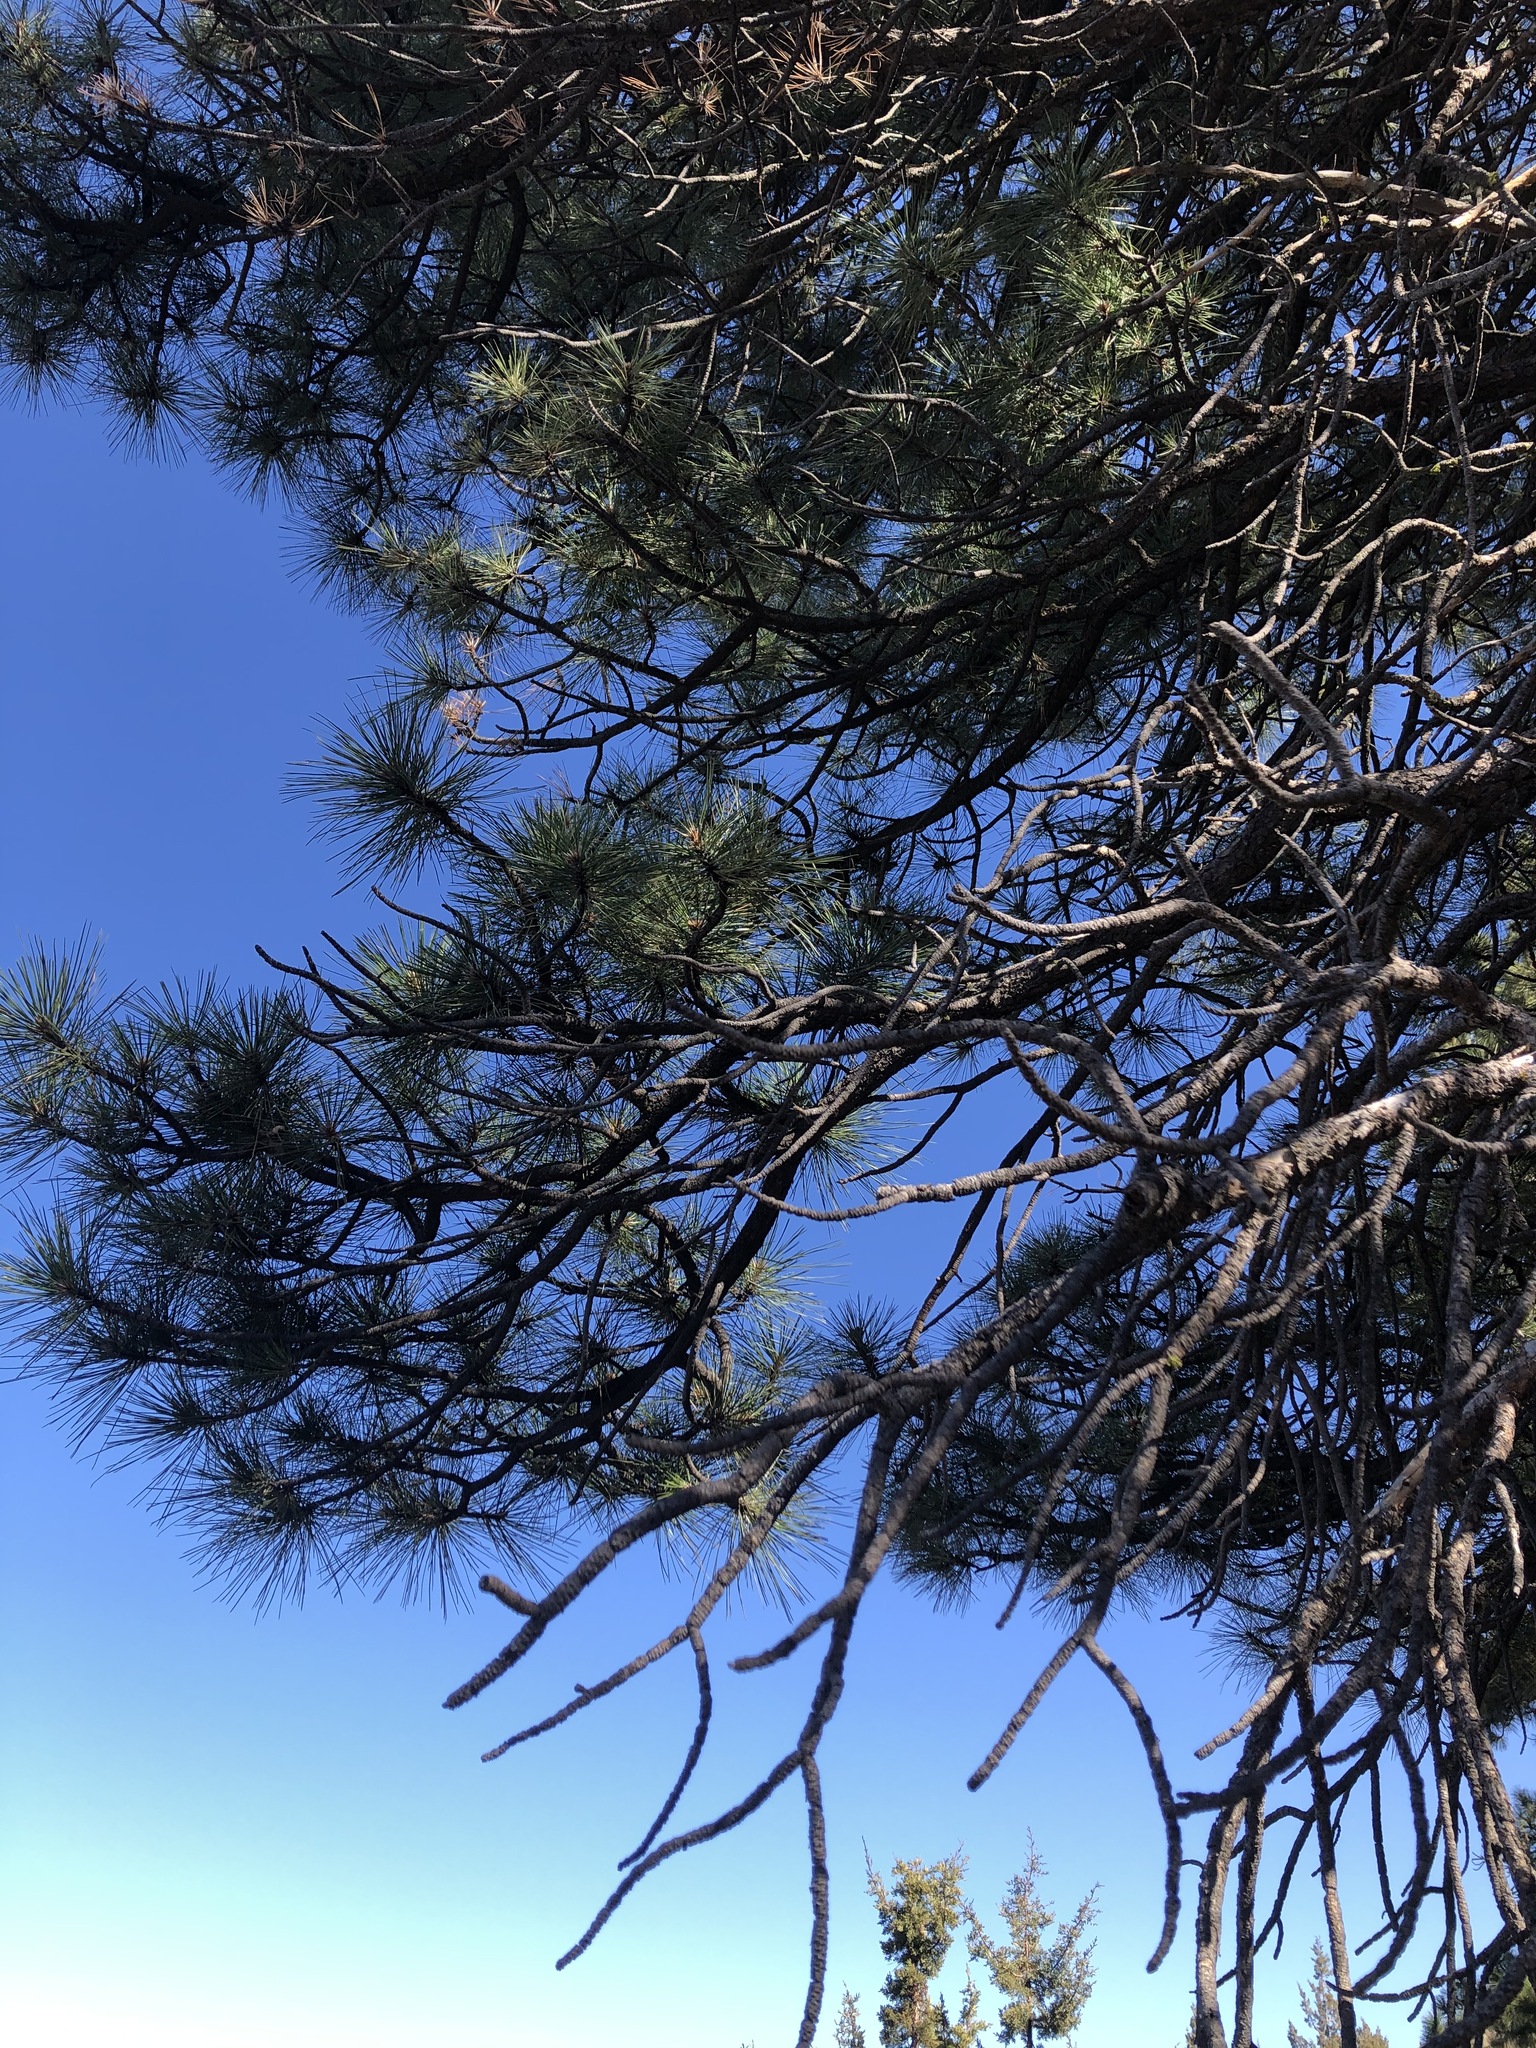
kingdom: Plantae
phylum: Tracheophyta
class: Pinopsida
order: Pinales
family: Pinaceae
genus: Pinus
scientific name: Pinus ponderosa
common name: Western yellow-pine
